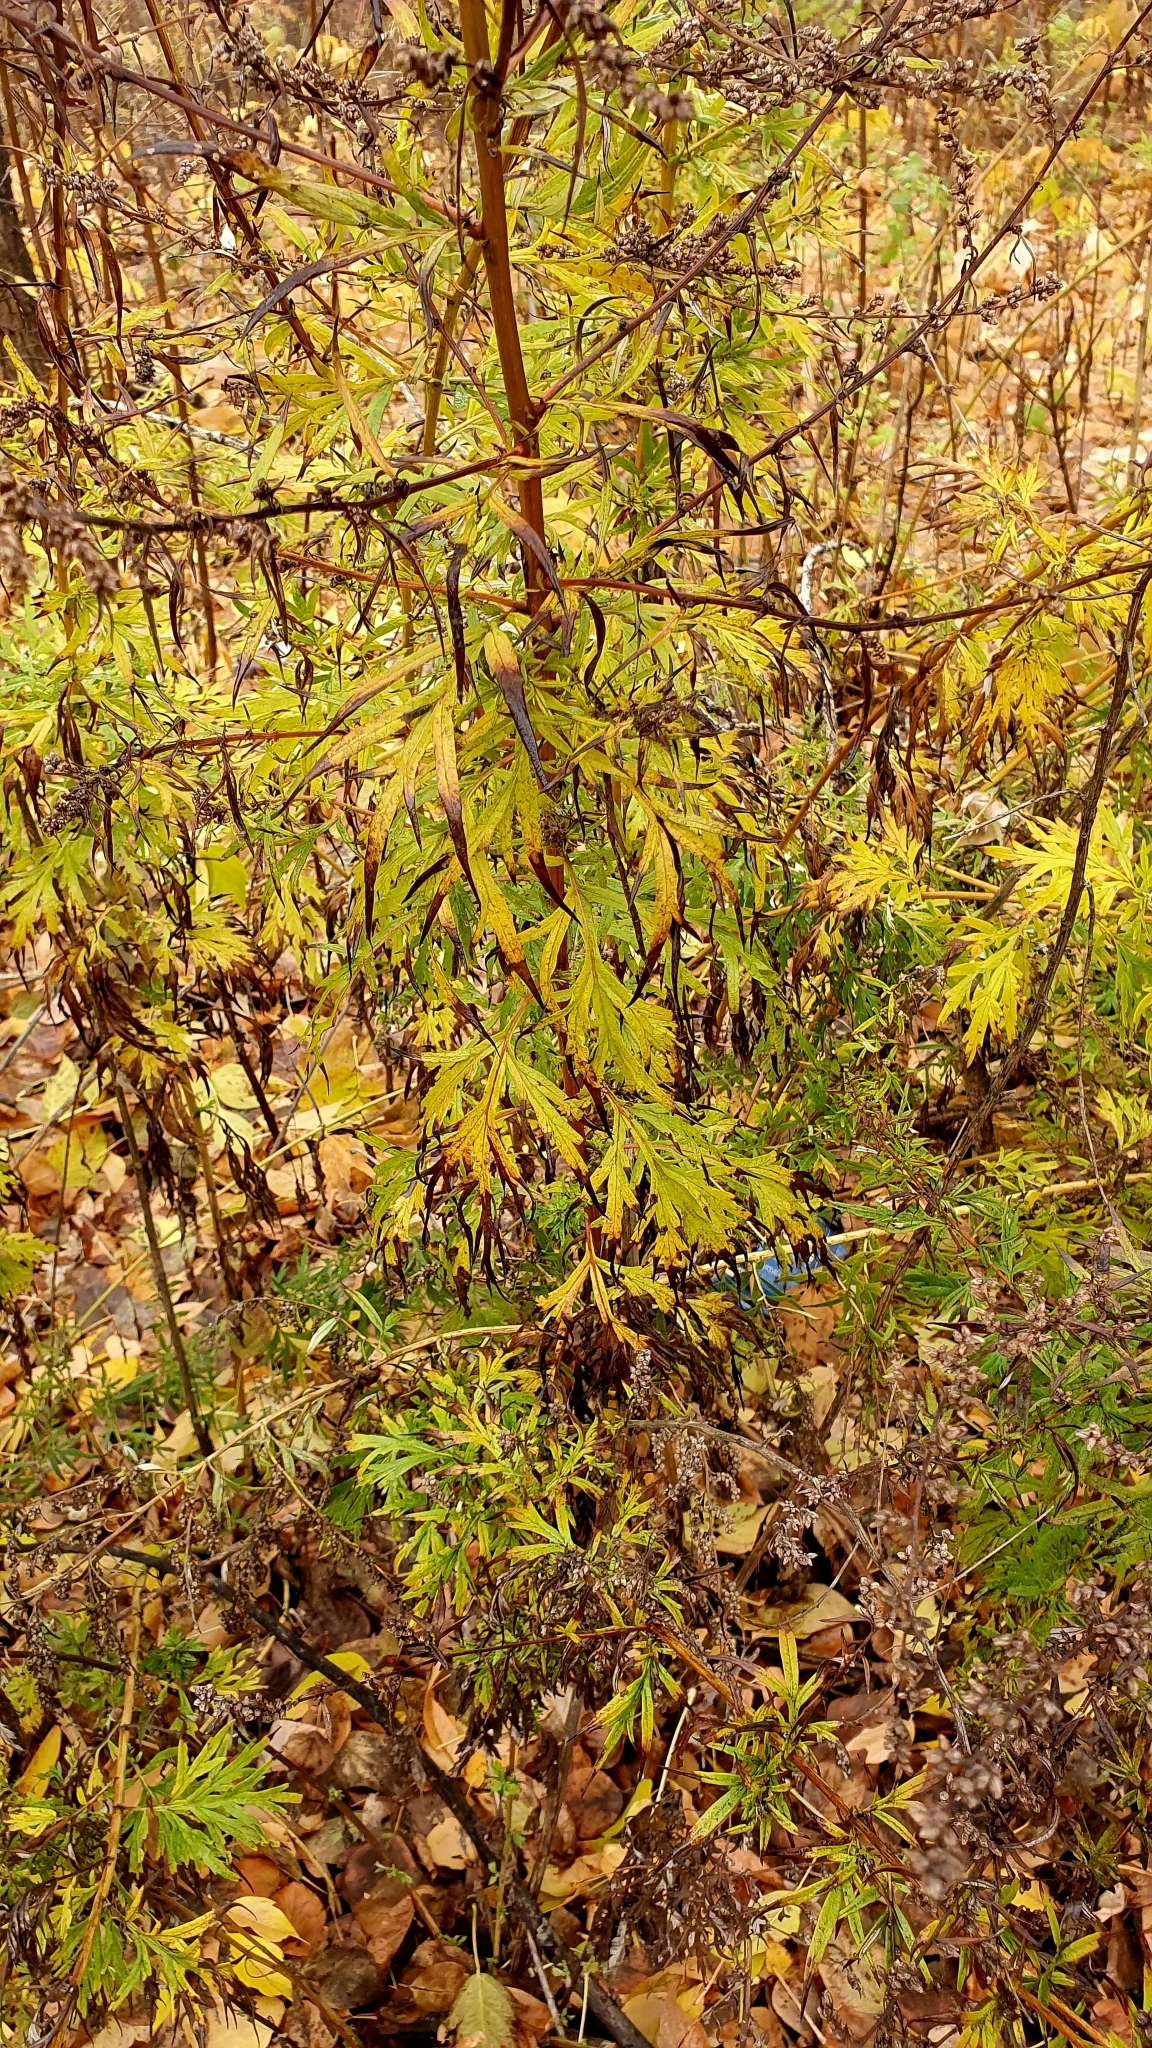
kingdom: Plantae
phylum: Tracheophyta
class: Magnoliopsida
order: Asterales
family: Asteraceae
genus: Artemisia
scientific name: Artemisia vulgaris
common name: Mugwort
